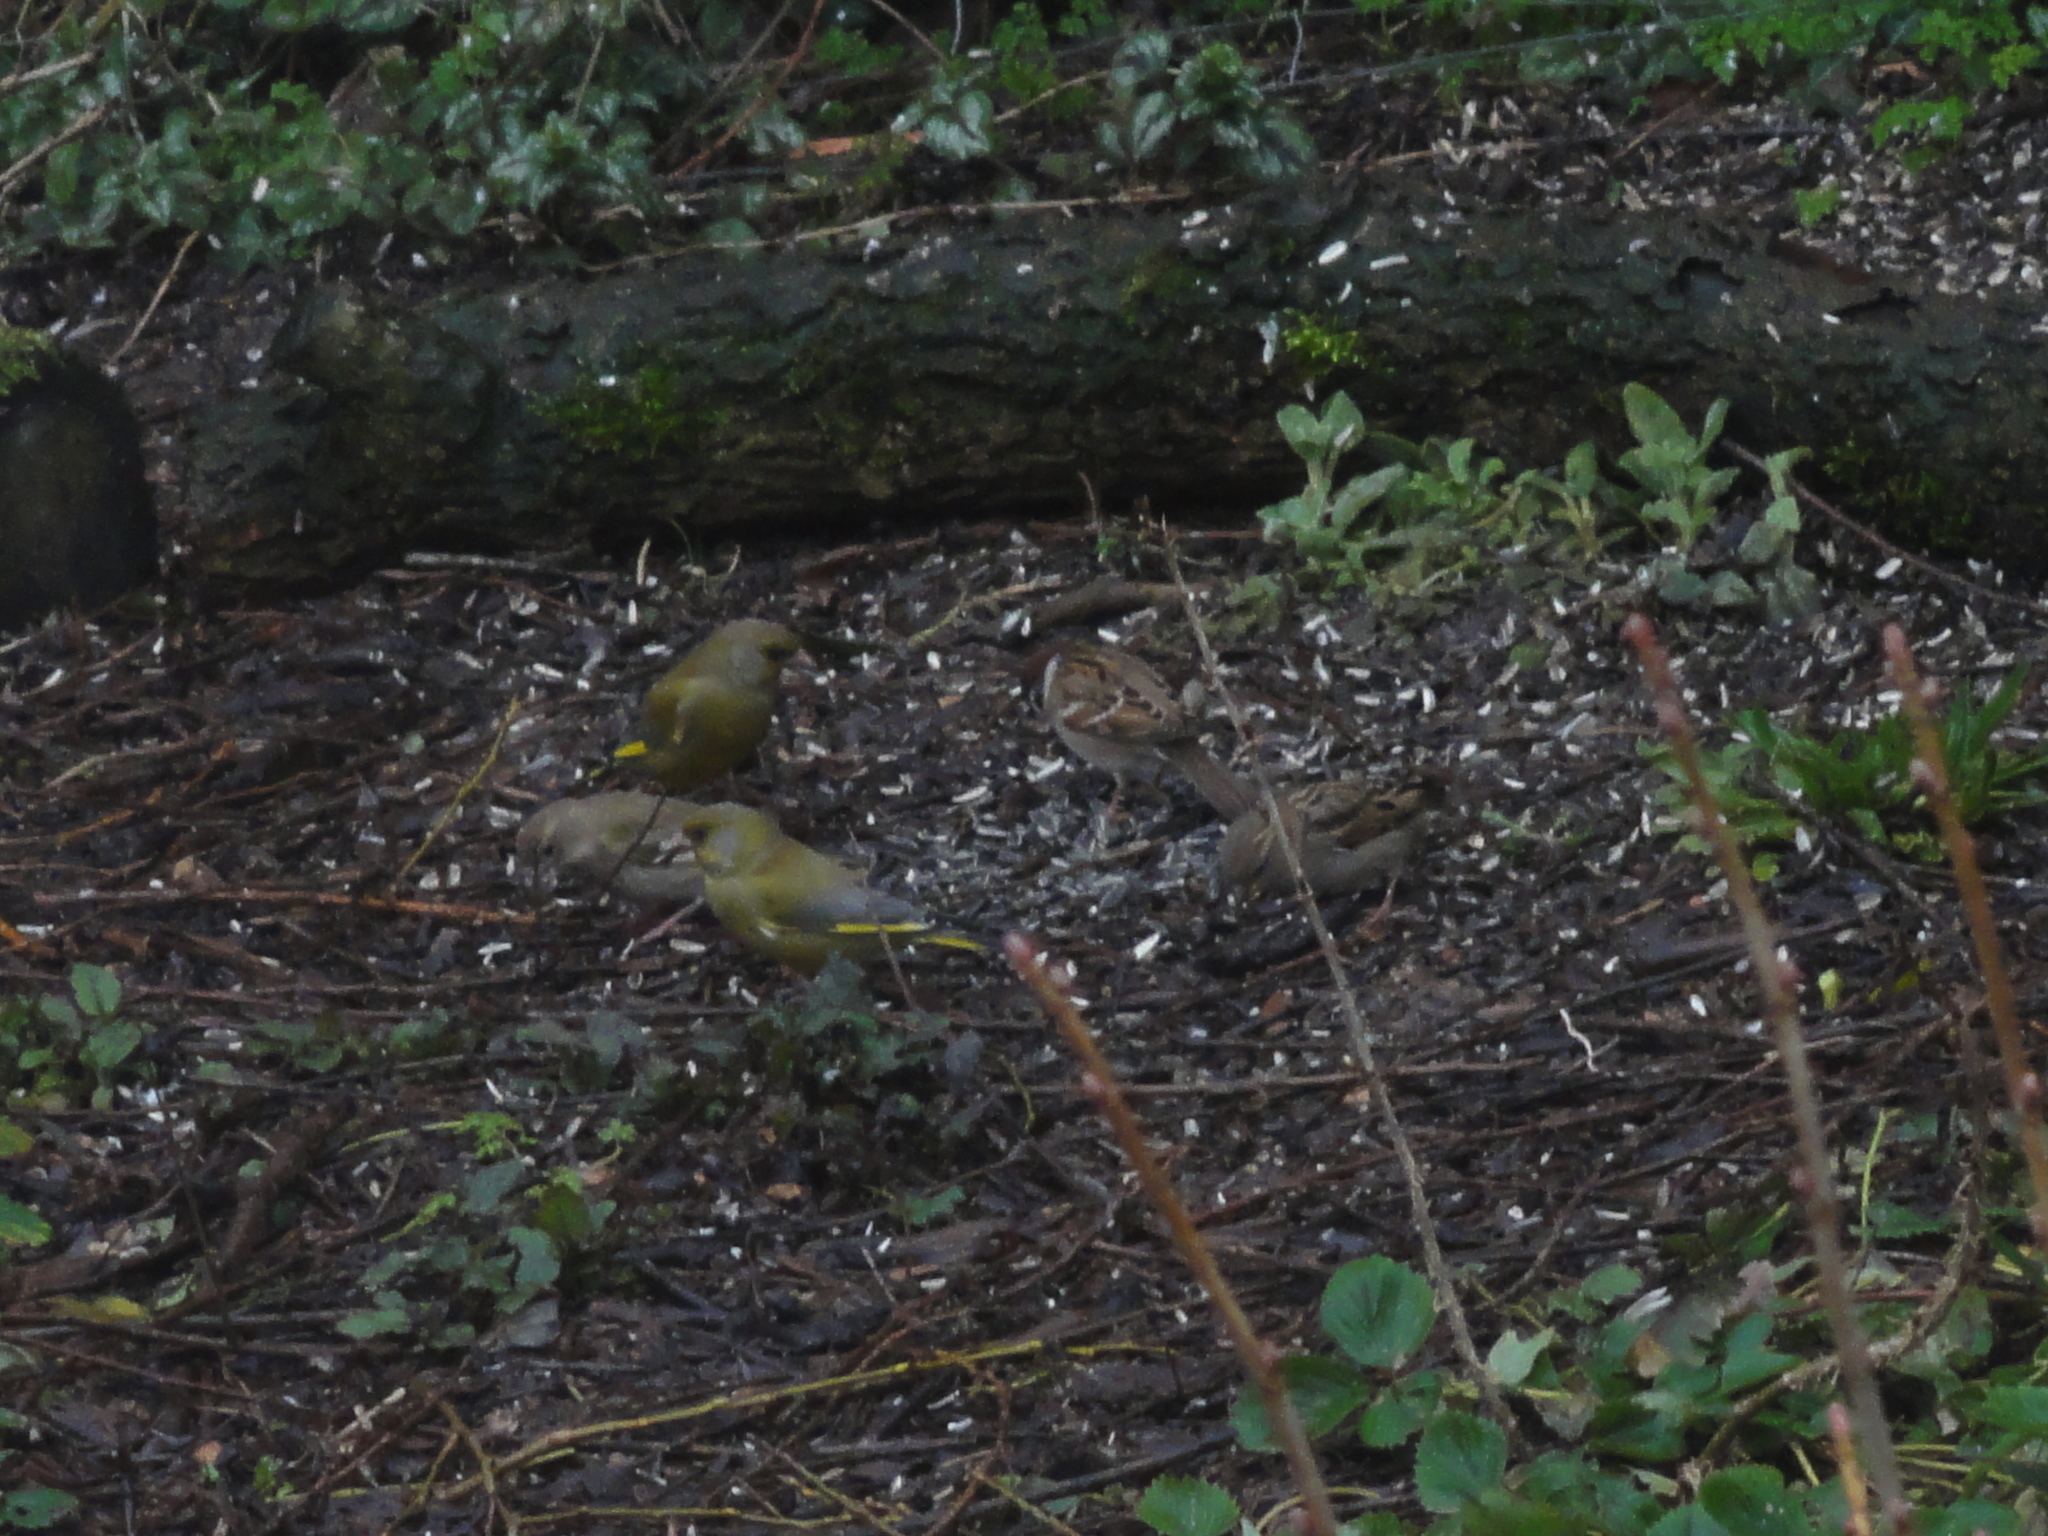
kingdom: Plantae
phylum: Tracheophyta
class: Liliopsida
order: Poales
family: Poaceae
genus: Chloris
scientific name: Chloris chloris
